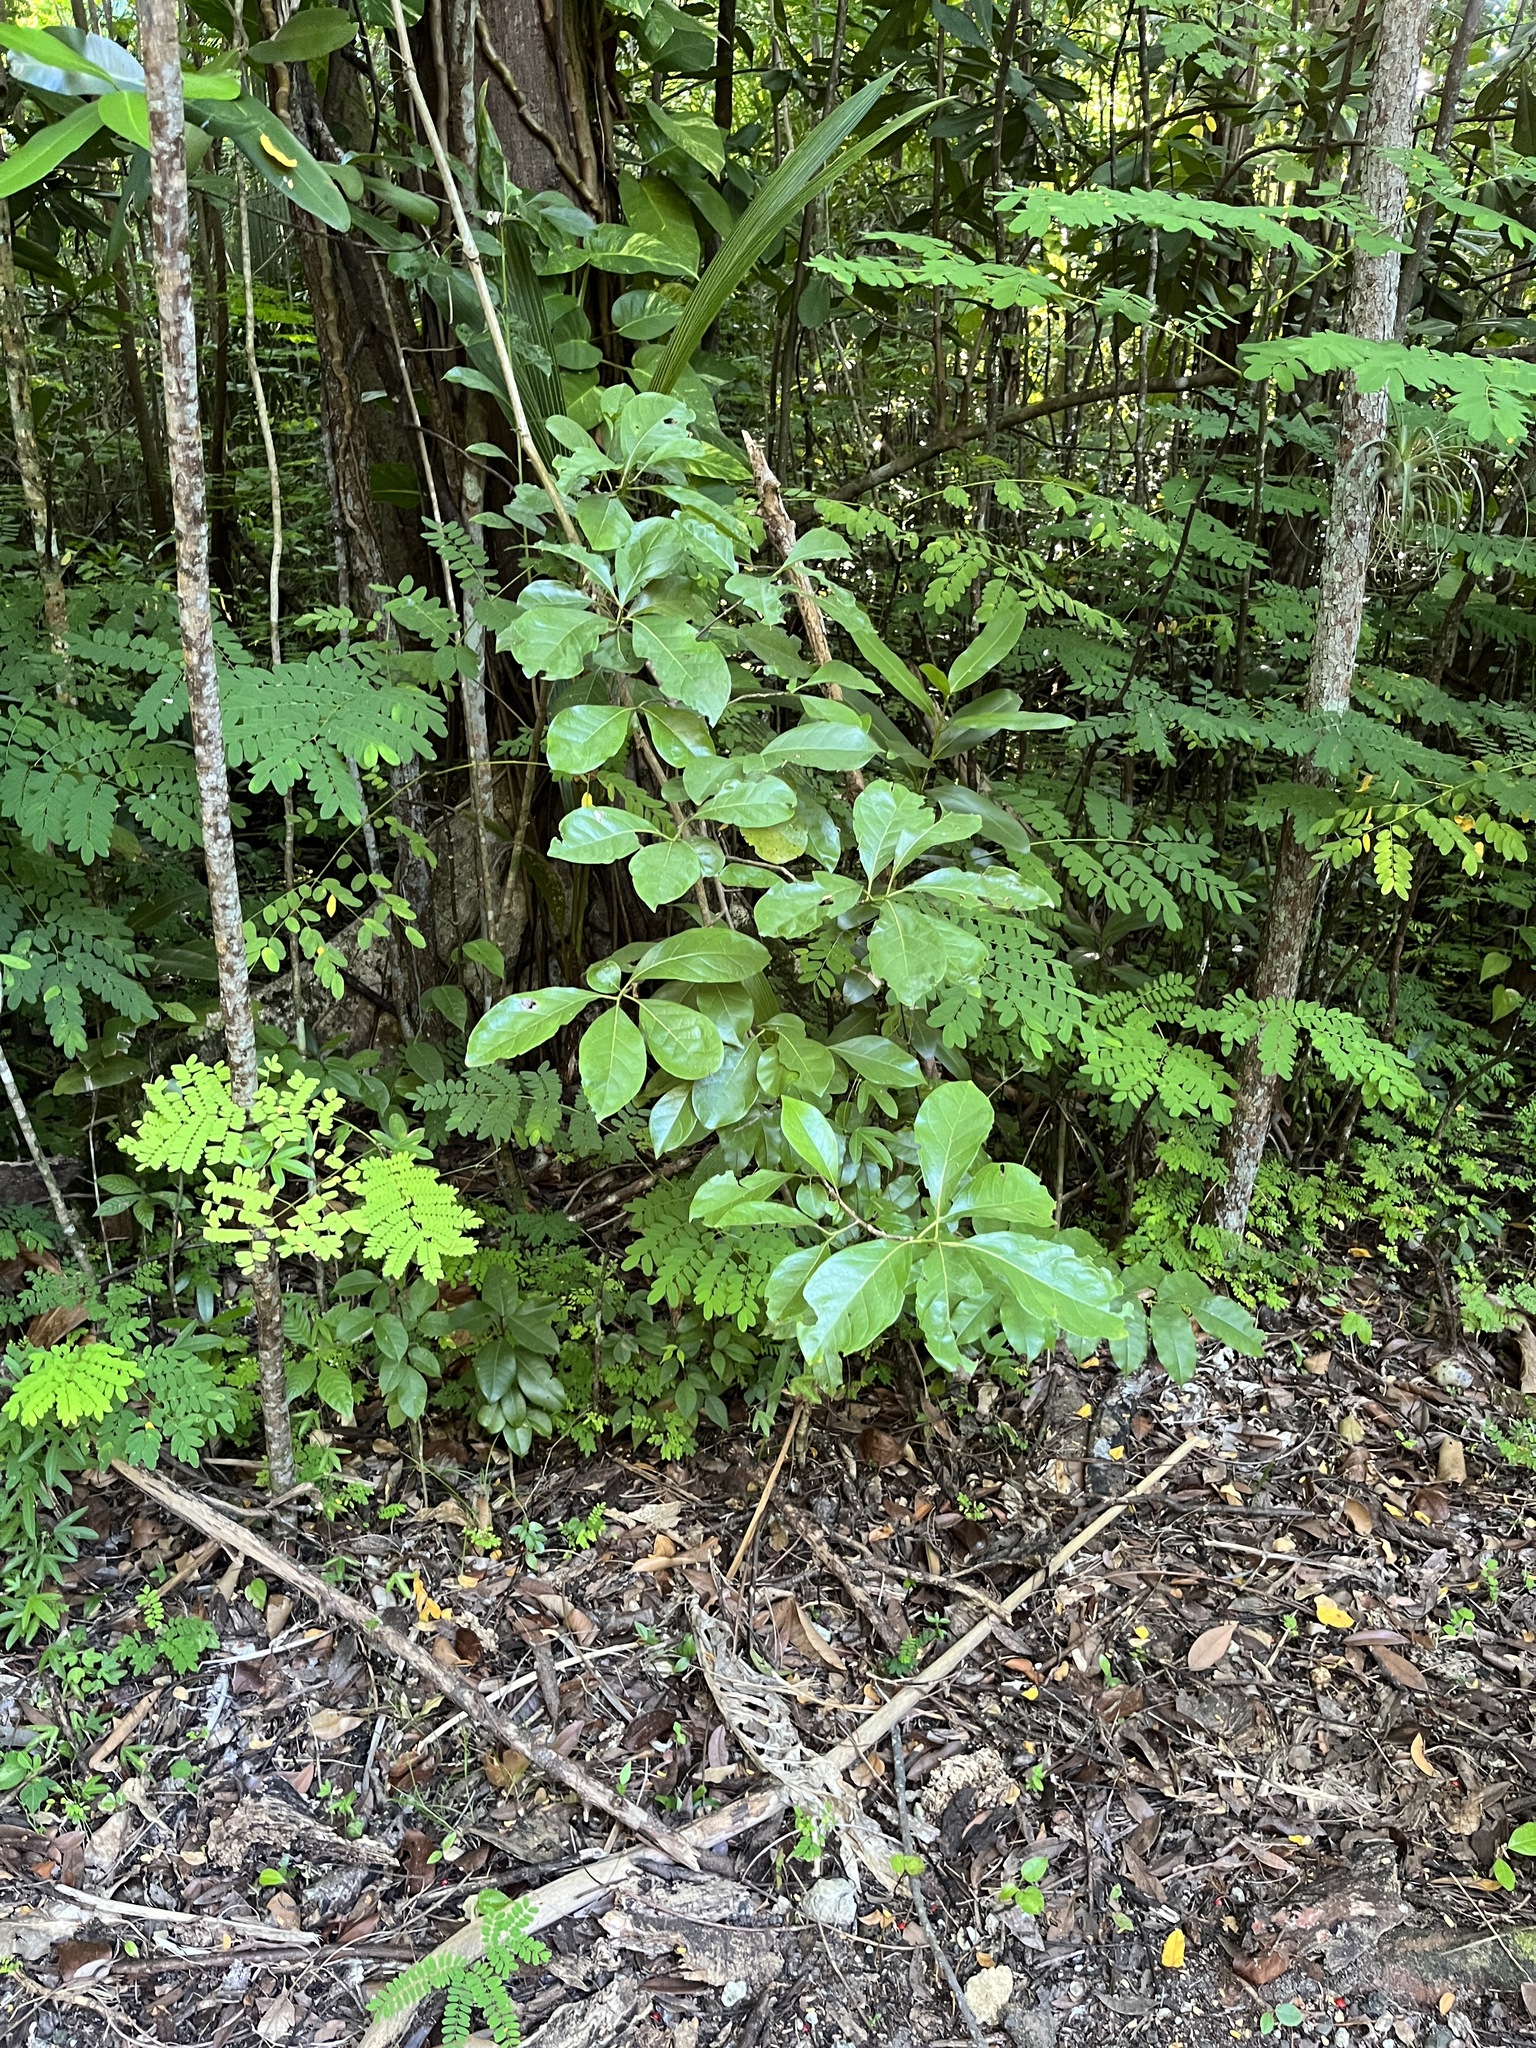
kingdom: Plantae
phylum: Tracheophyta
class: Magnoliopsida
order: Boraginales
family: Ehretiaceae
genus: Bourreria
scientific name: Bourreria succulenta
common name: Cherry
